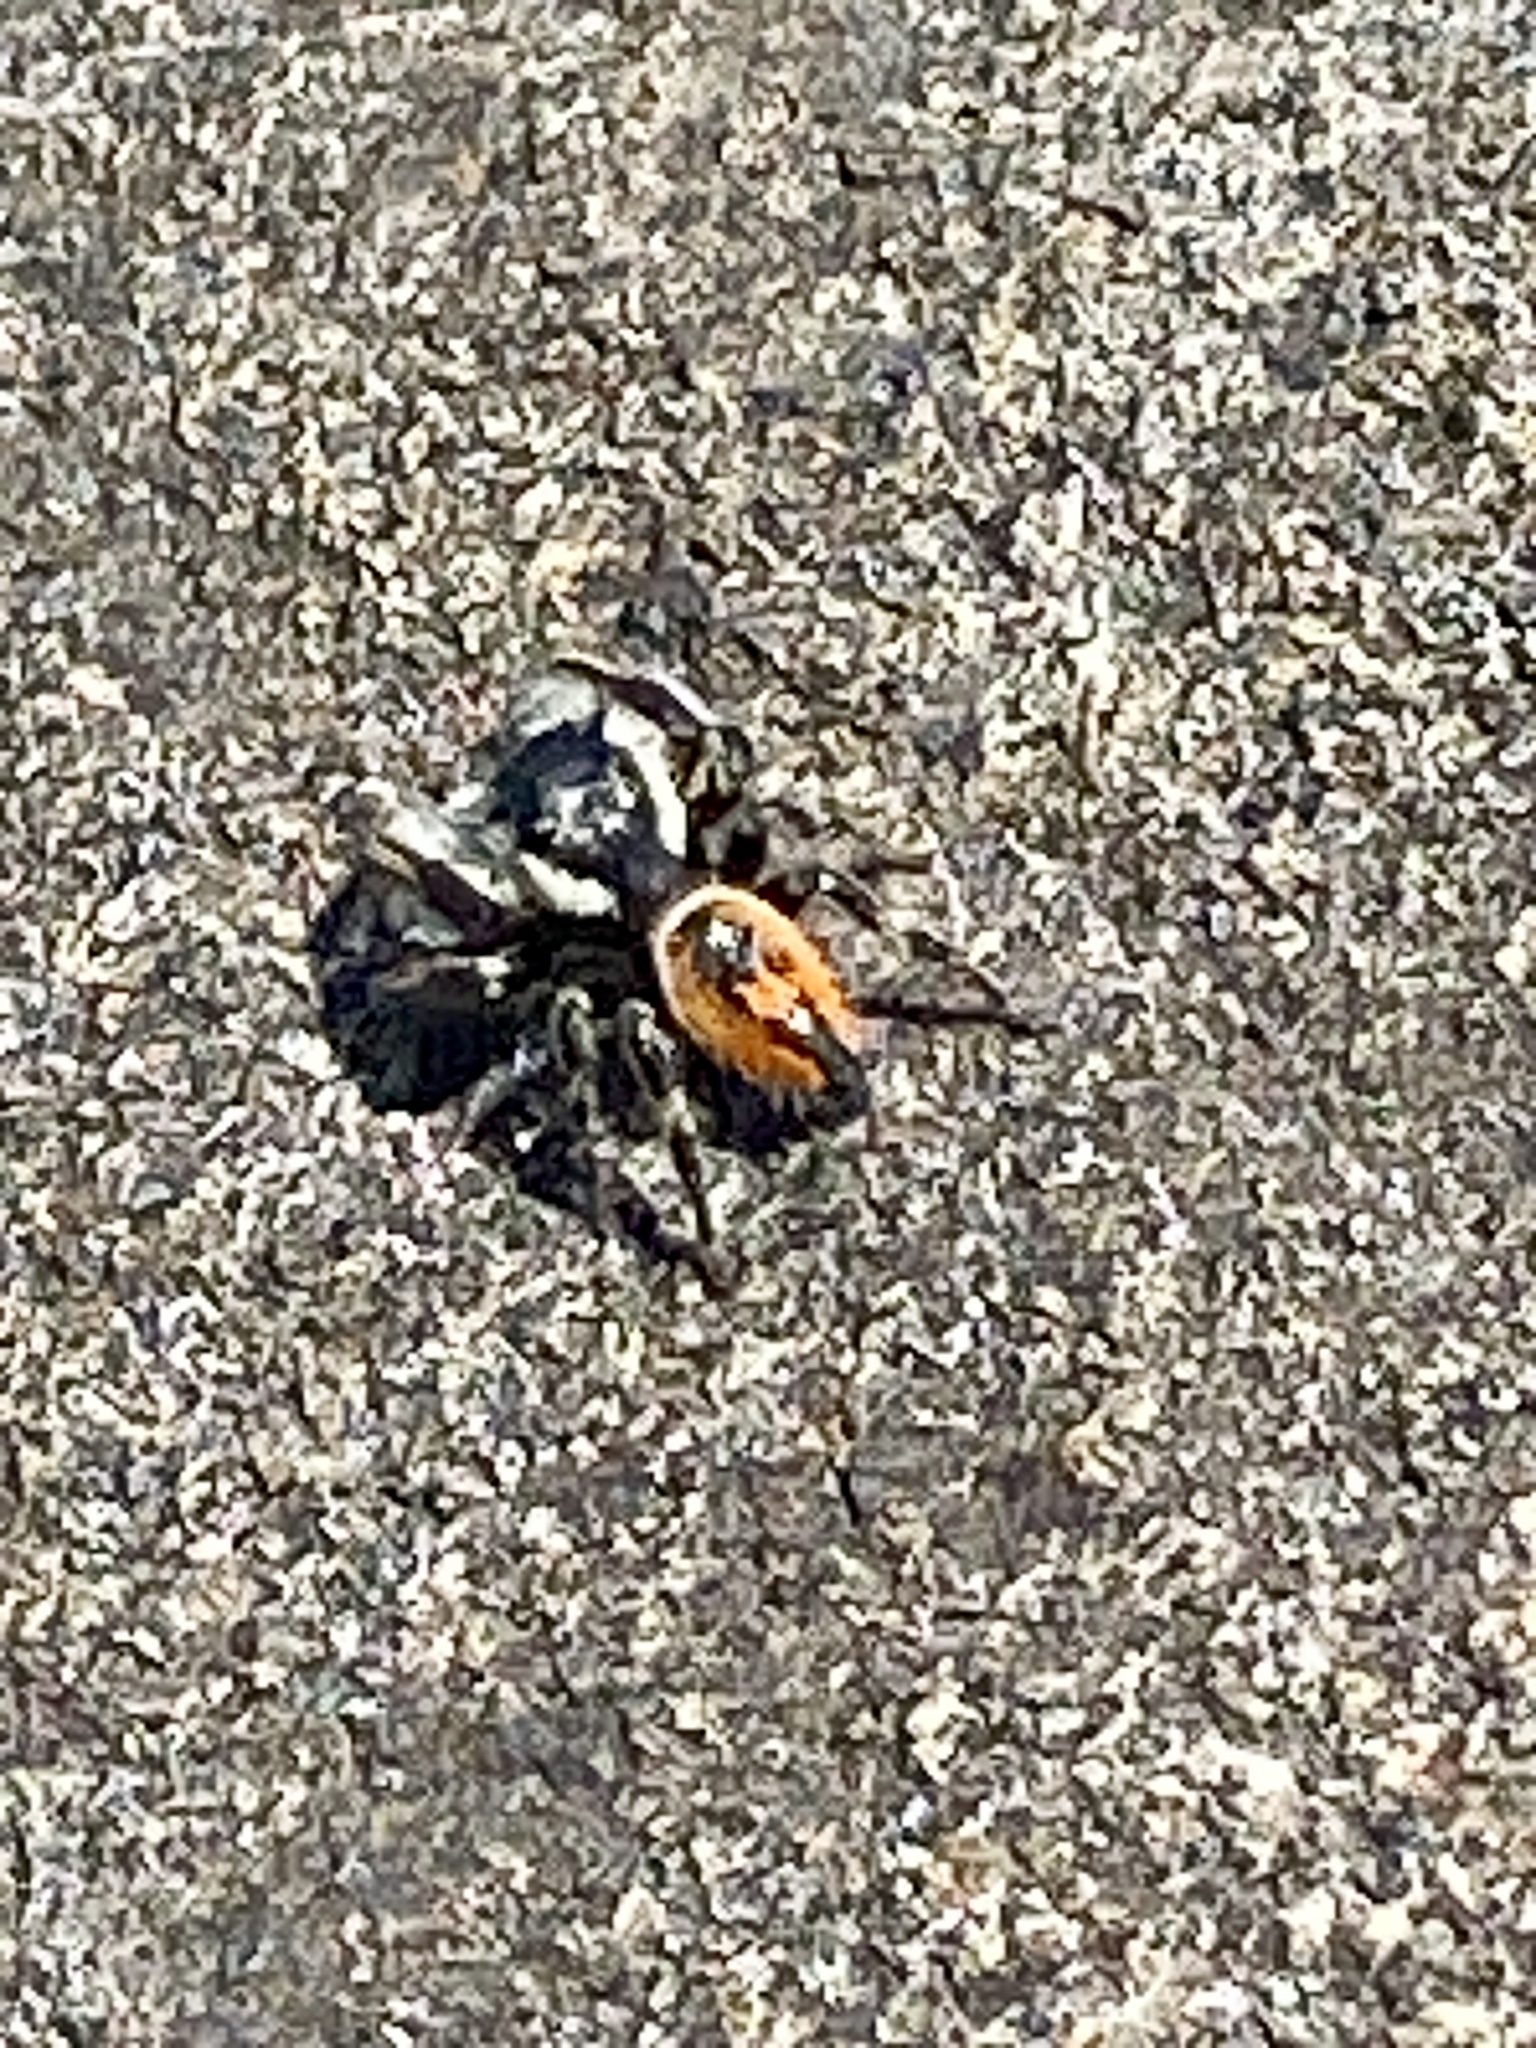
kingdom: Animalia
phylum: Arthropoda
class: Arachnida
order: Araneae
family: Salticidae
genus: Phidippus
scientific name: Phidippus insignarius
